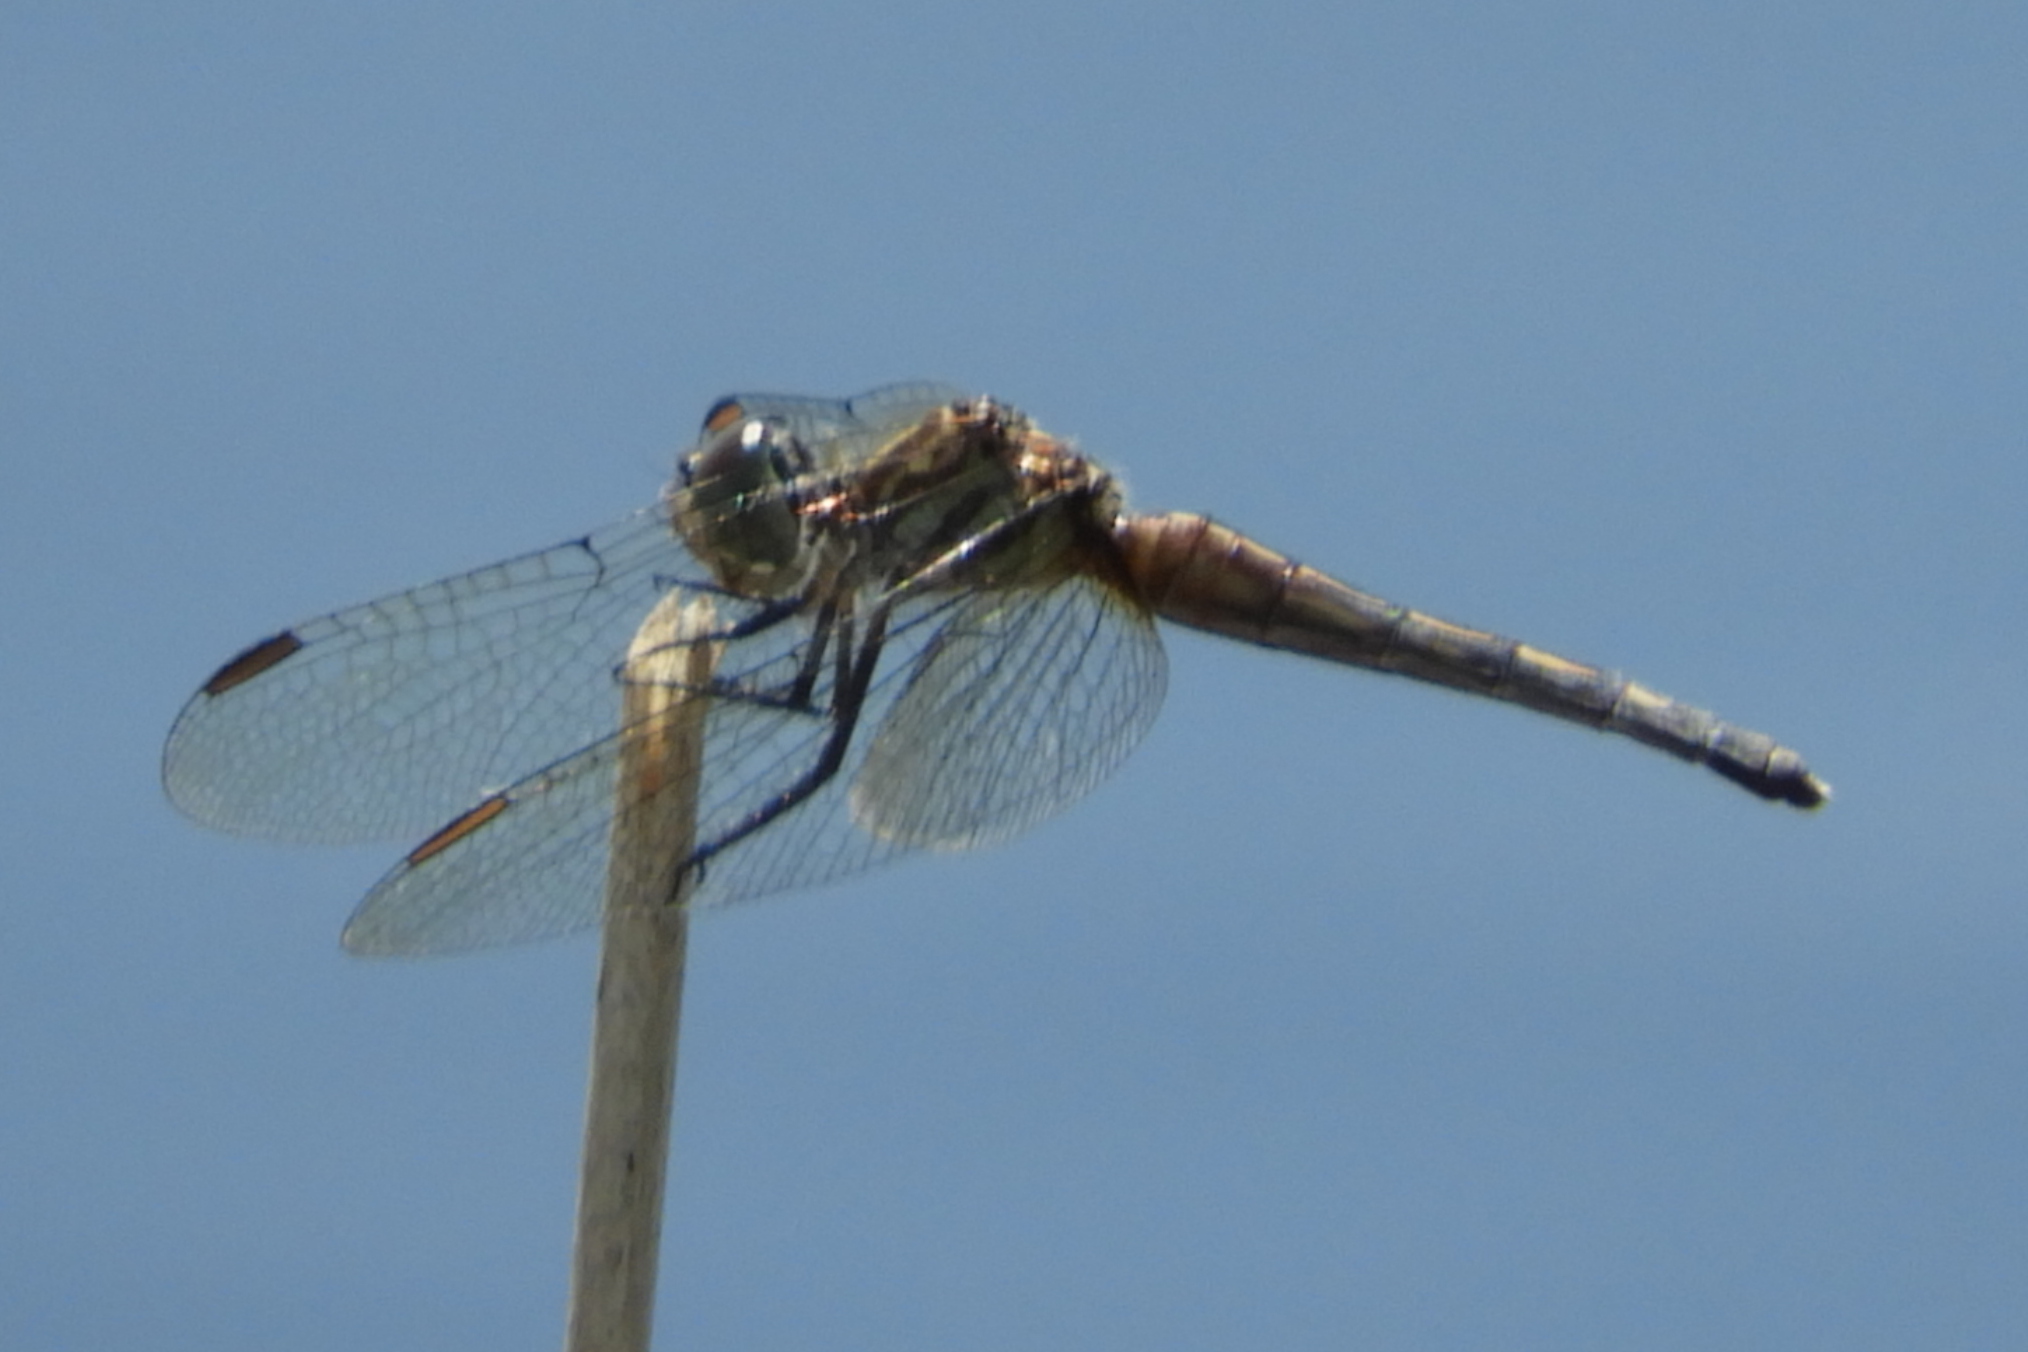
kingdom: Animalia
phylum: Arthropoda
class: Insecta
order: Odonata
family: Libellulidae
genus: Pachydiplax
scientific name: Pachydiplax longipennis
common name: Blue dasher
